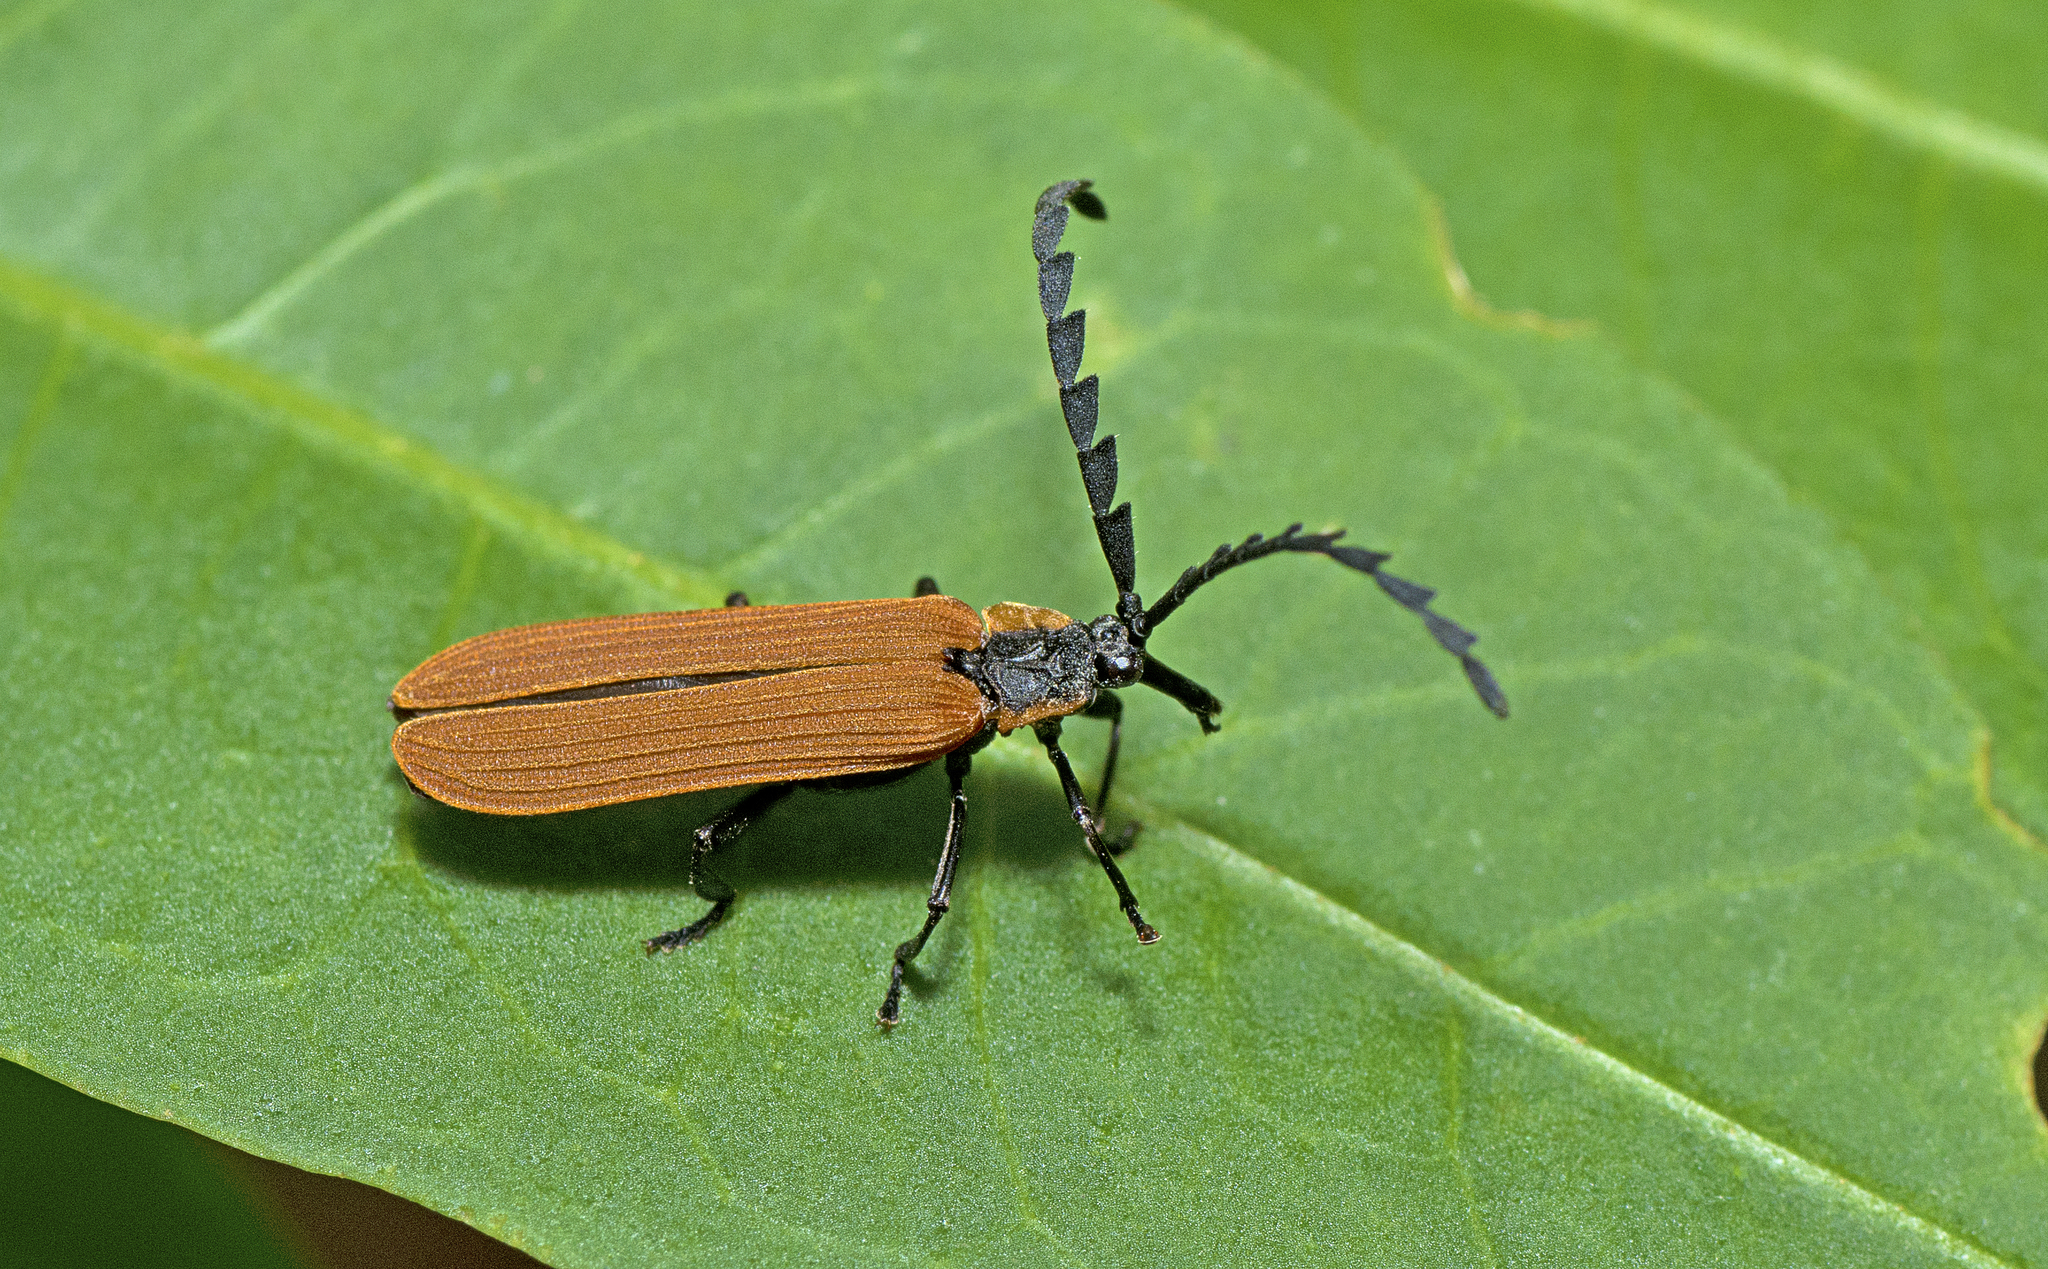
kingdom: Animalia
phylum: Arthropoda
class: Insecta
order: Coleoptera
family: Lycidae
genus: Porrostoma
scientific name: Porrostoma
